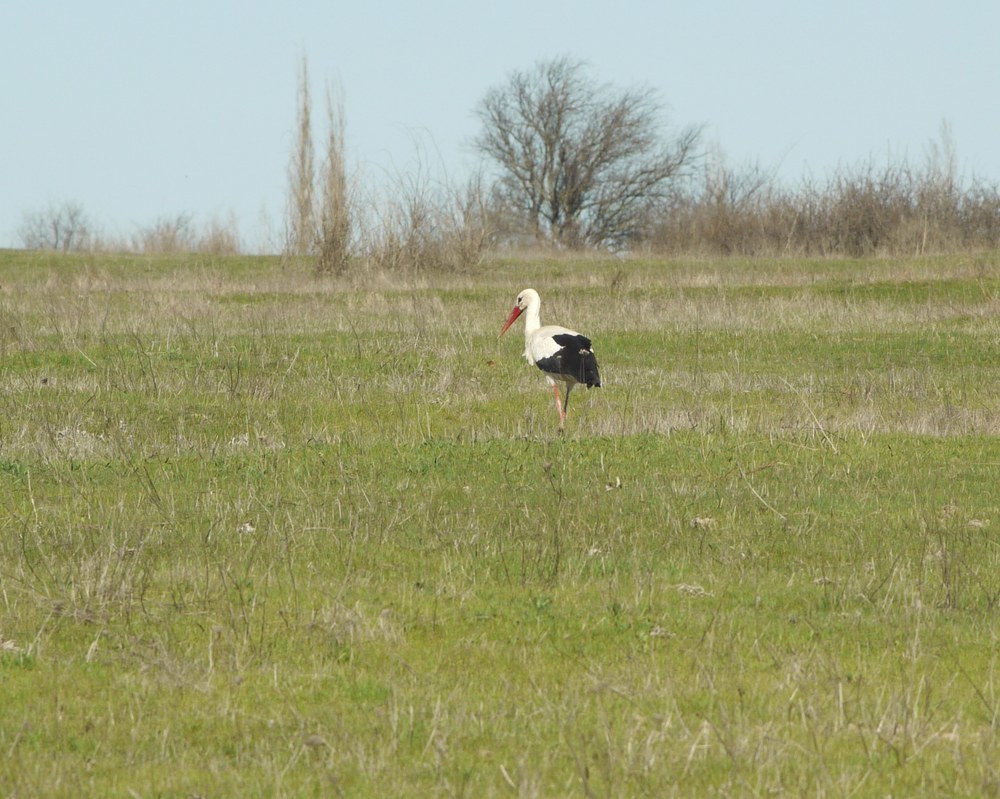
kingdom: Animalia
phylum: Chordata
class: Aves
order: Ciconiiformes
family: Ciconiidae
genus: Ciconia
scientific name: Ciconia ciconia
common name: White stork
